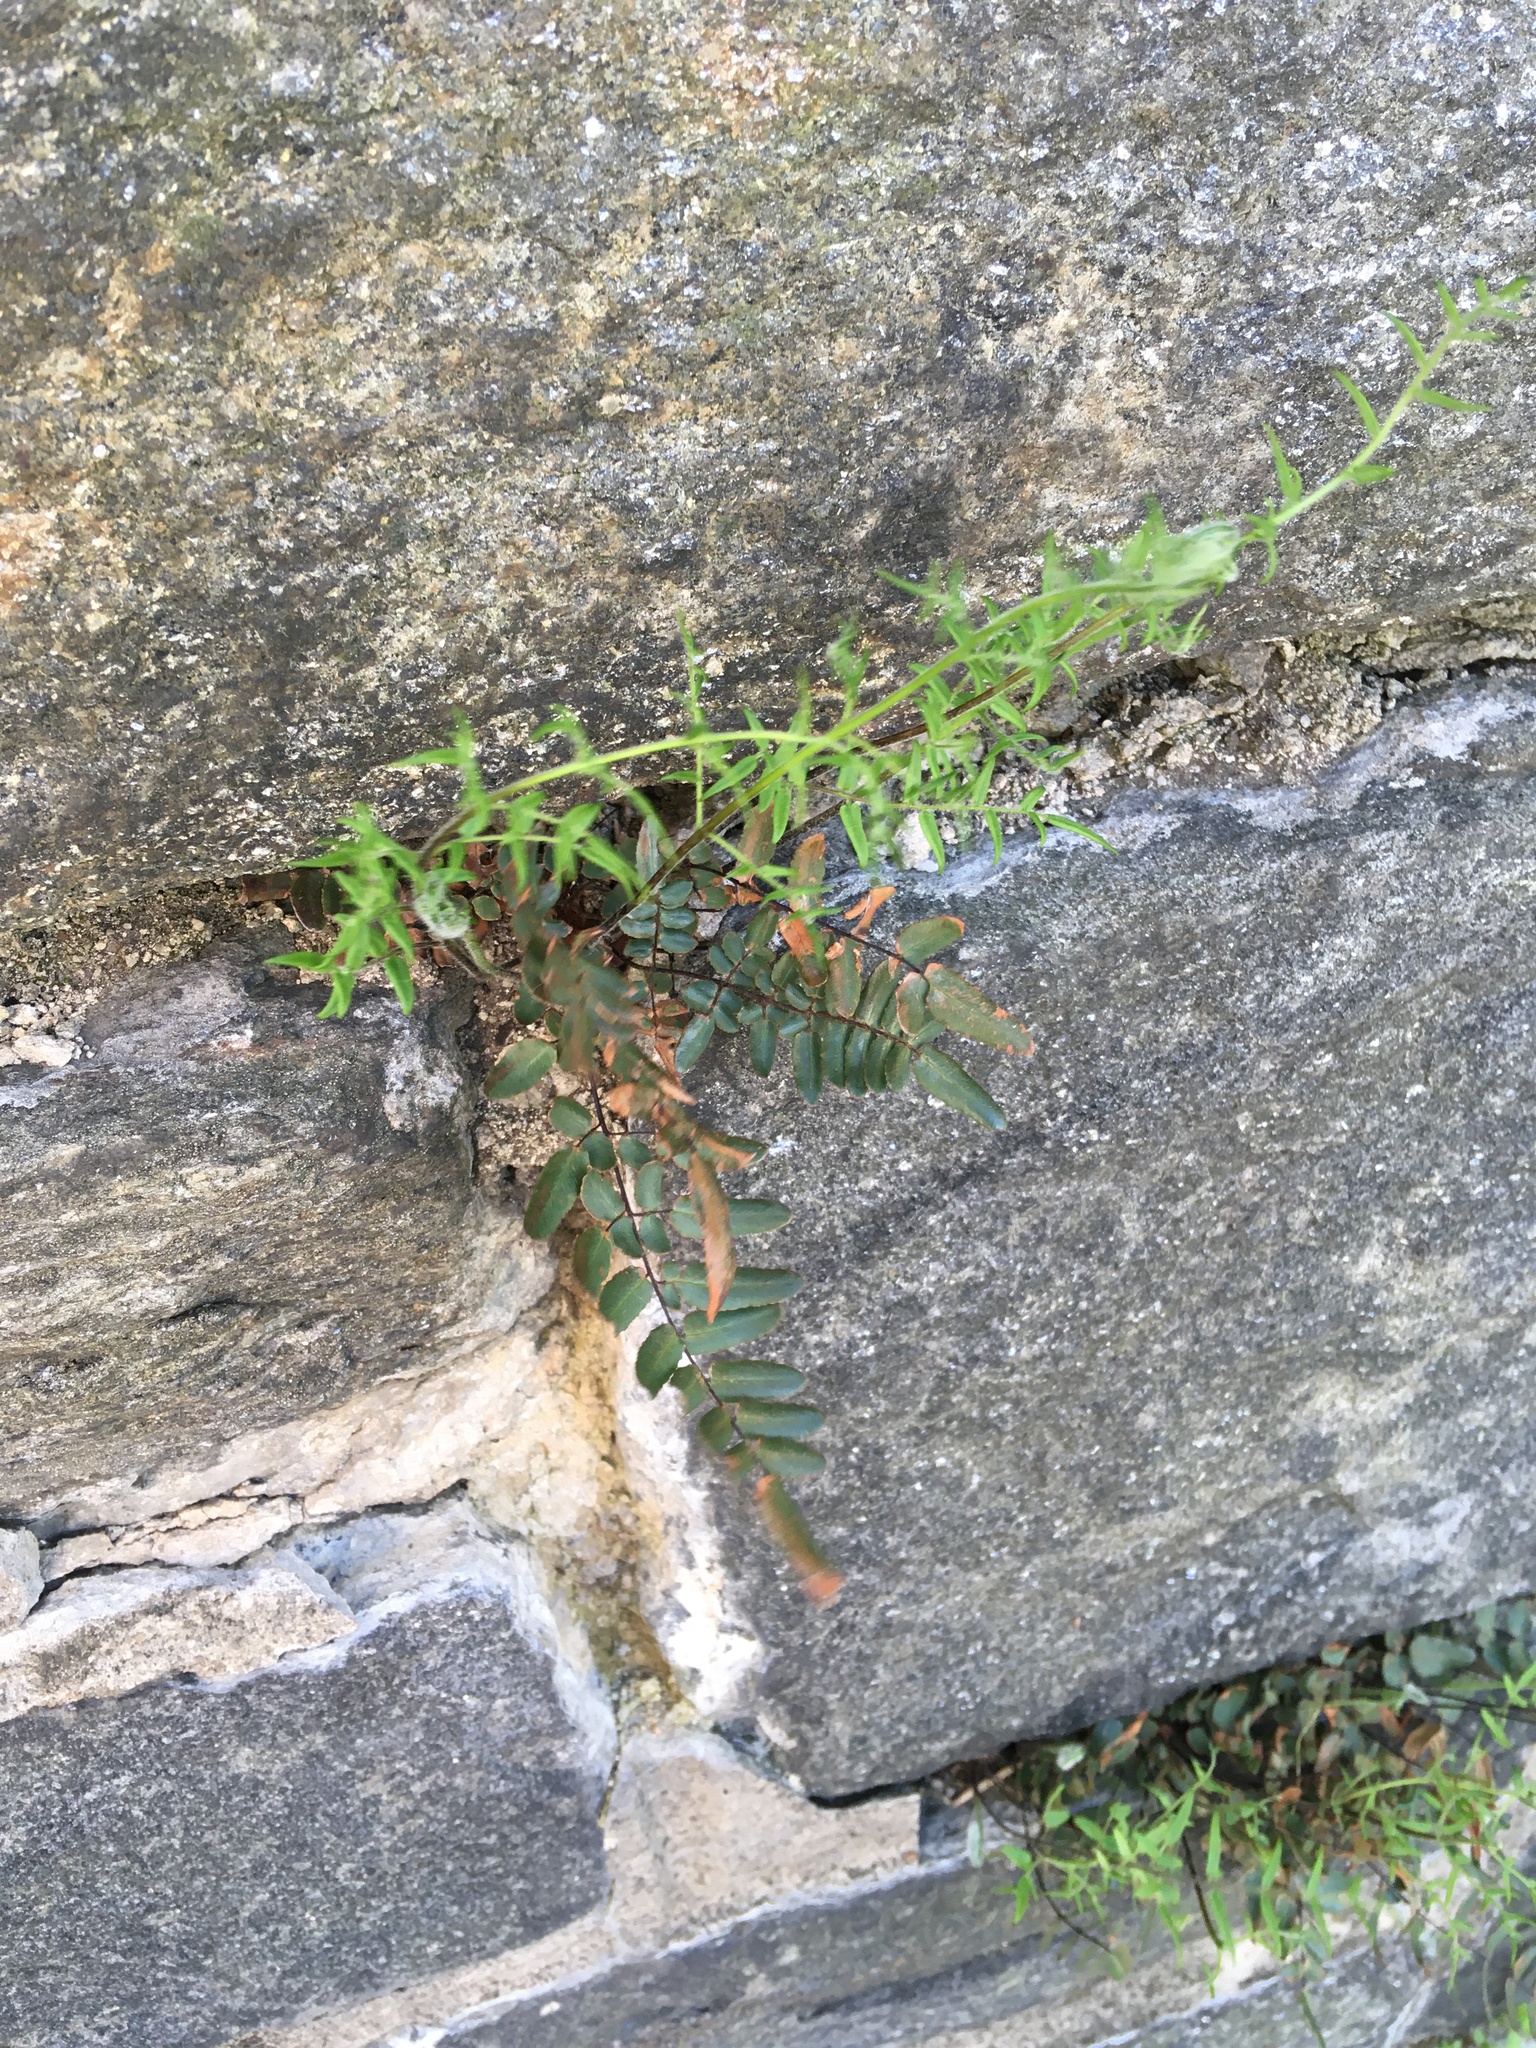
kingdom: Plantae
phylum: Tracheophyta
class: Polypodiopsida
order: Polypodiales
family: Pteridaceae
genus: Pellaea
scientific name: Pellaea atropurpurea
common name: Hairy cliffbrake
